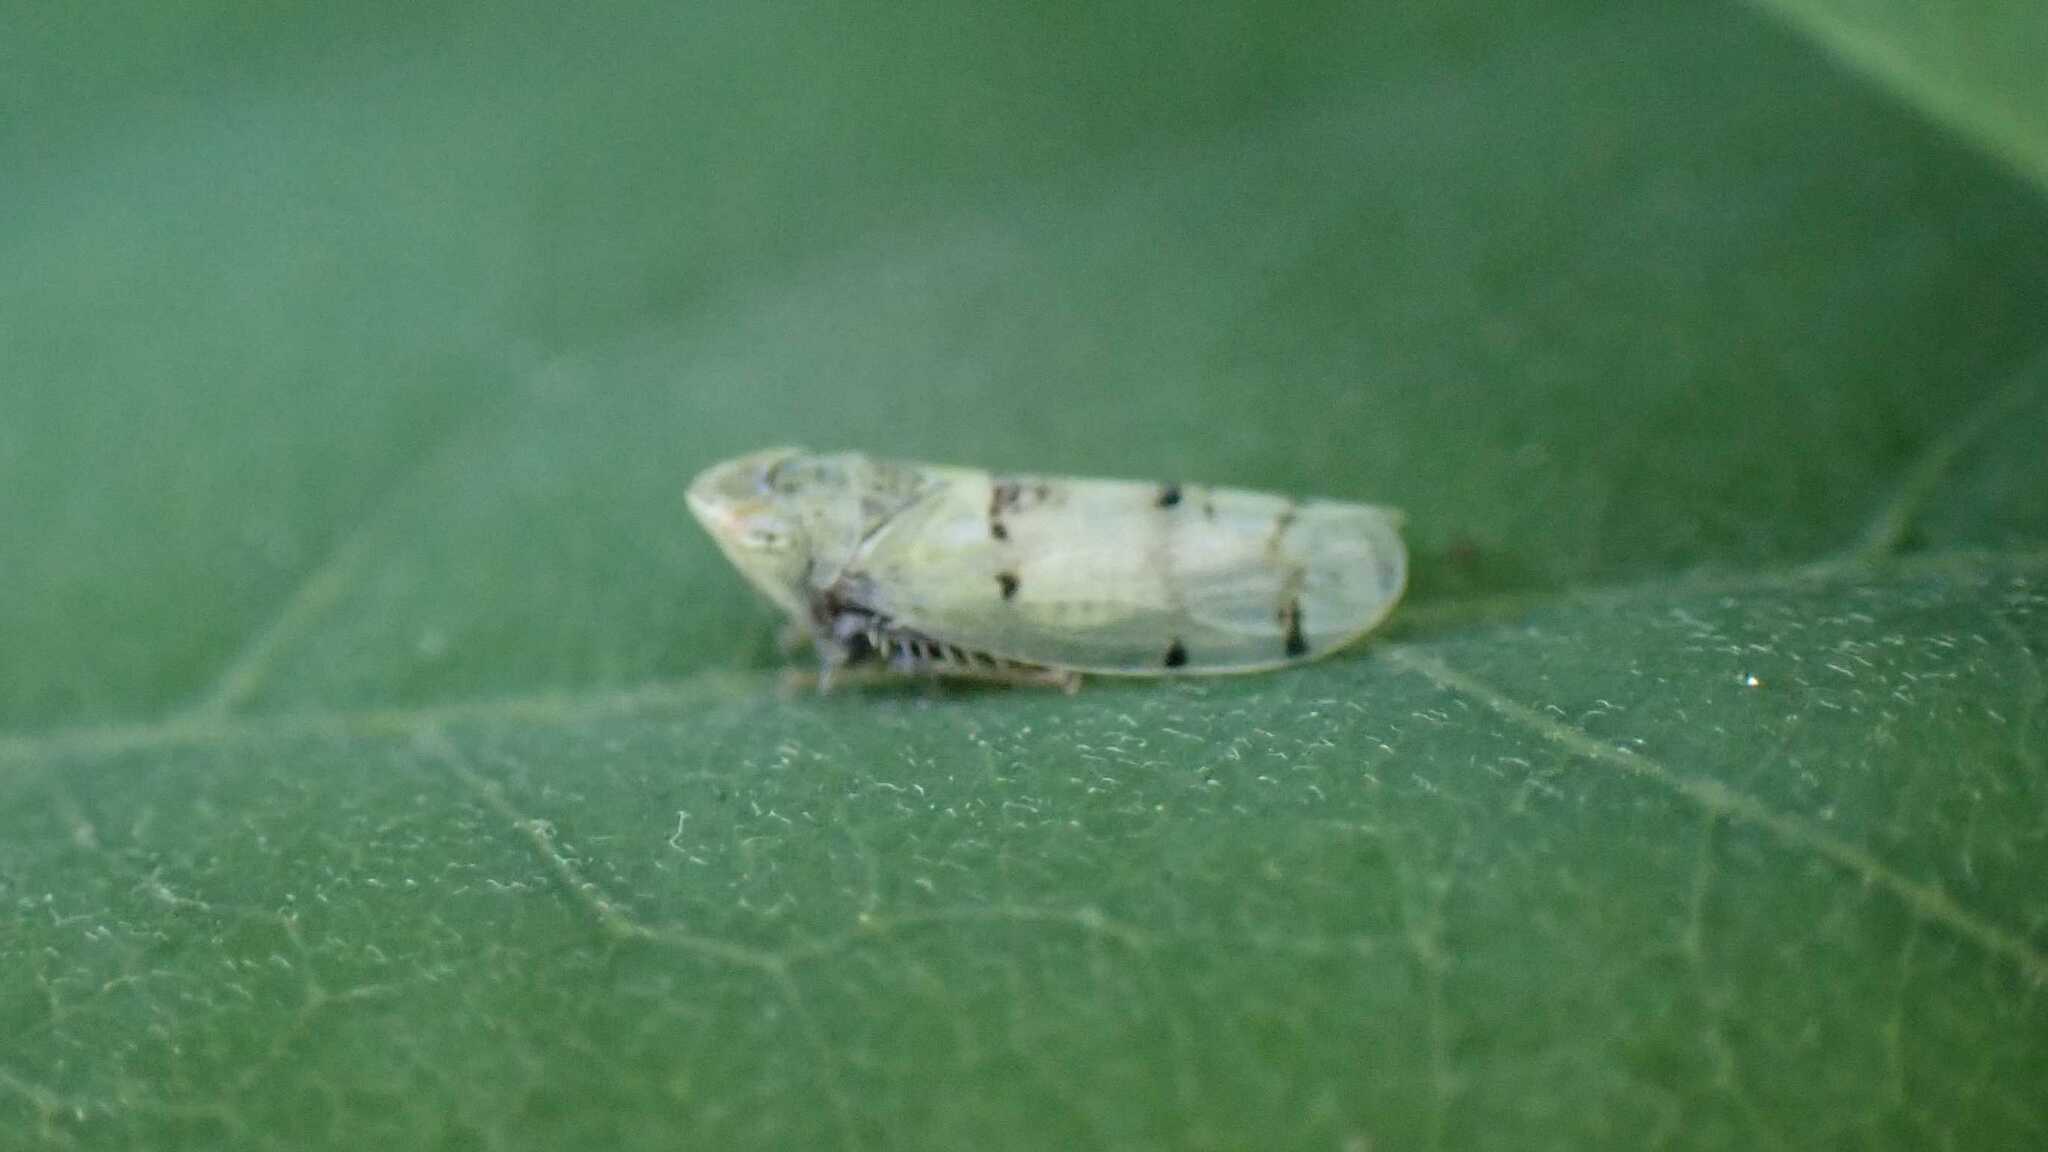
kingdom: Animalia
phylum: Arthropoda
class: Insecta
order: Hemiptera
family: Cicadellidae
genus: Japananus
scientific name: Japananus hyalinus
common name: The japanese maple leafhopper
